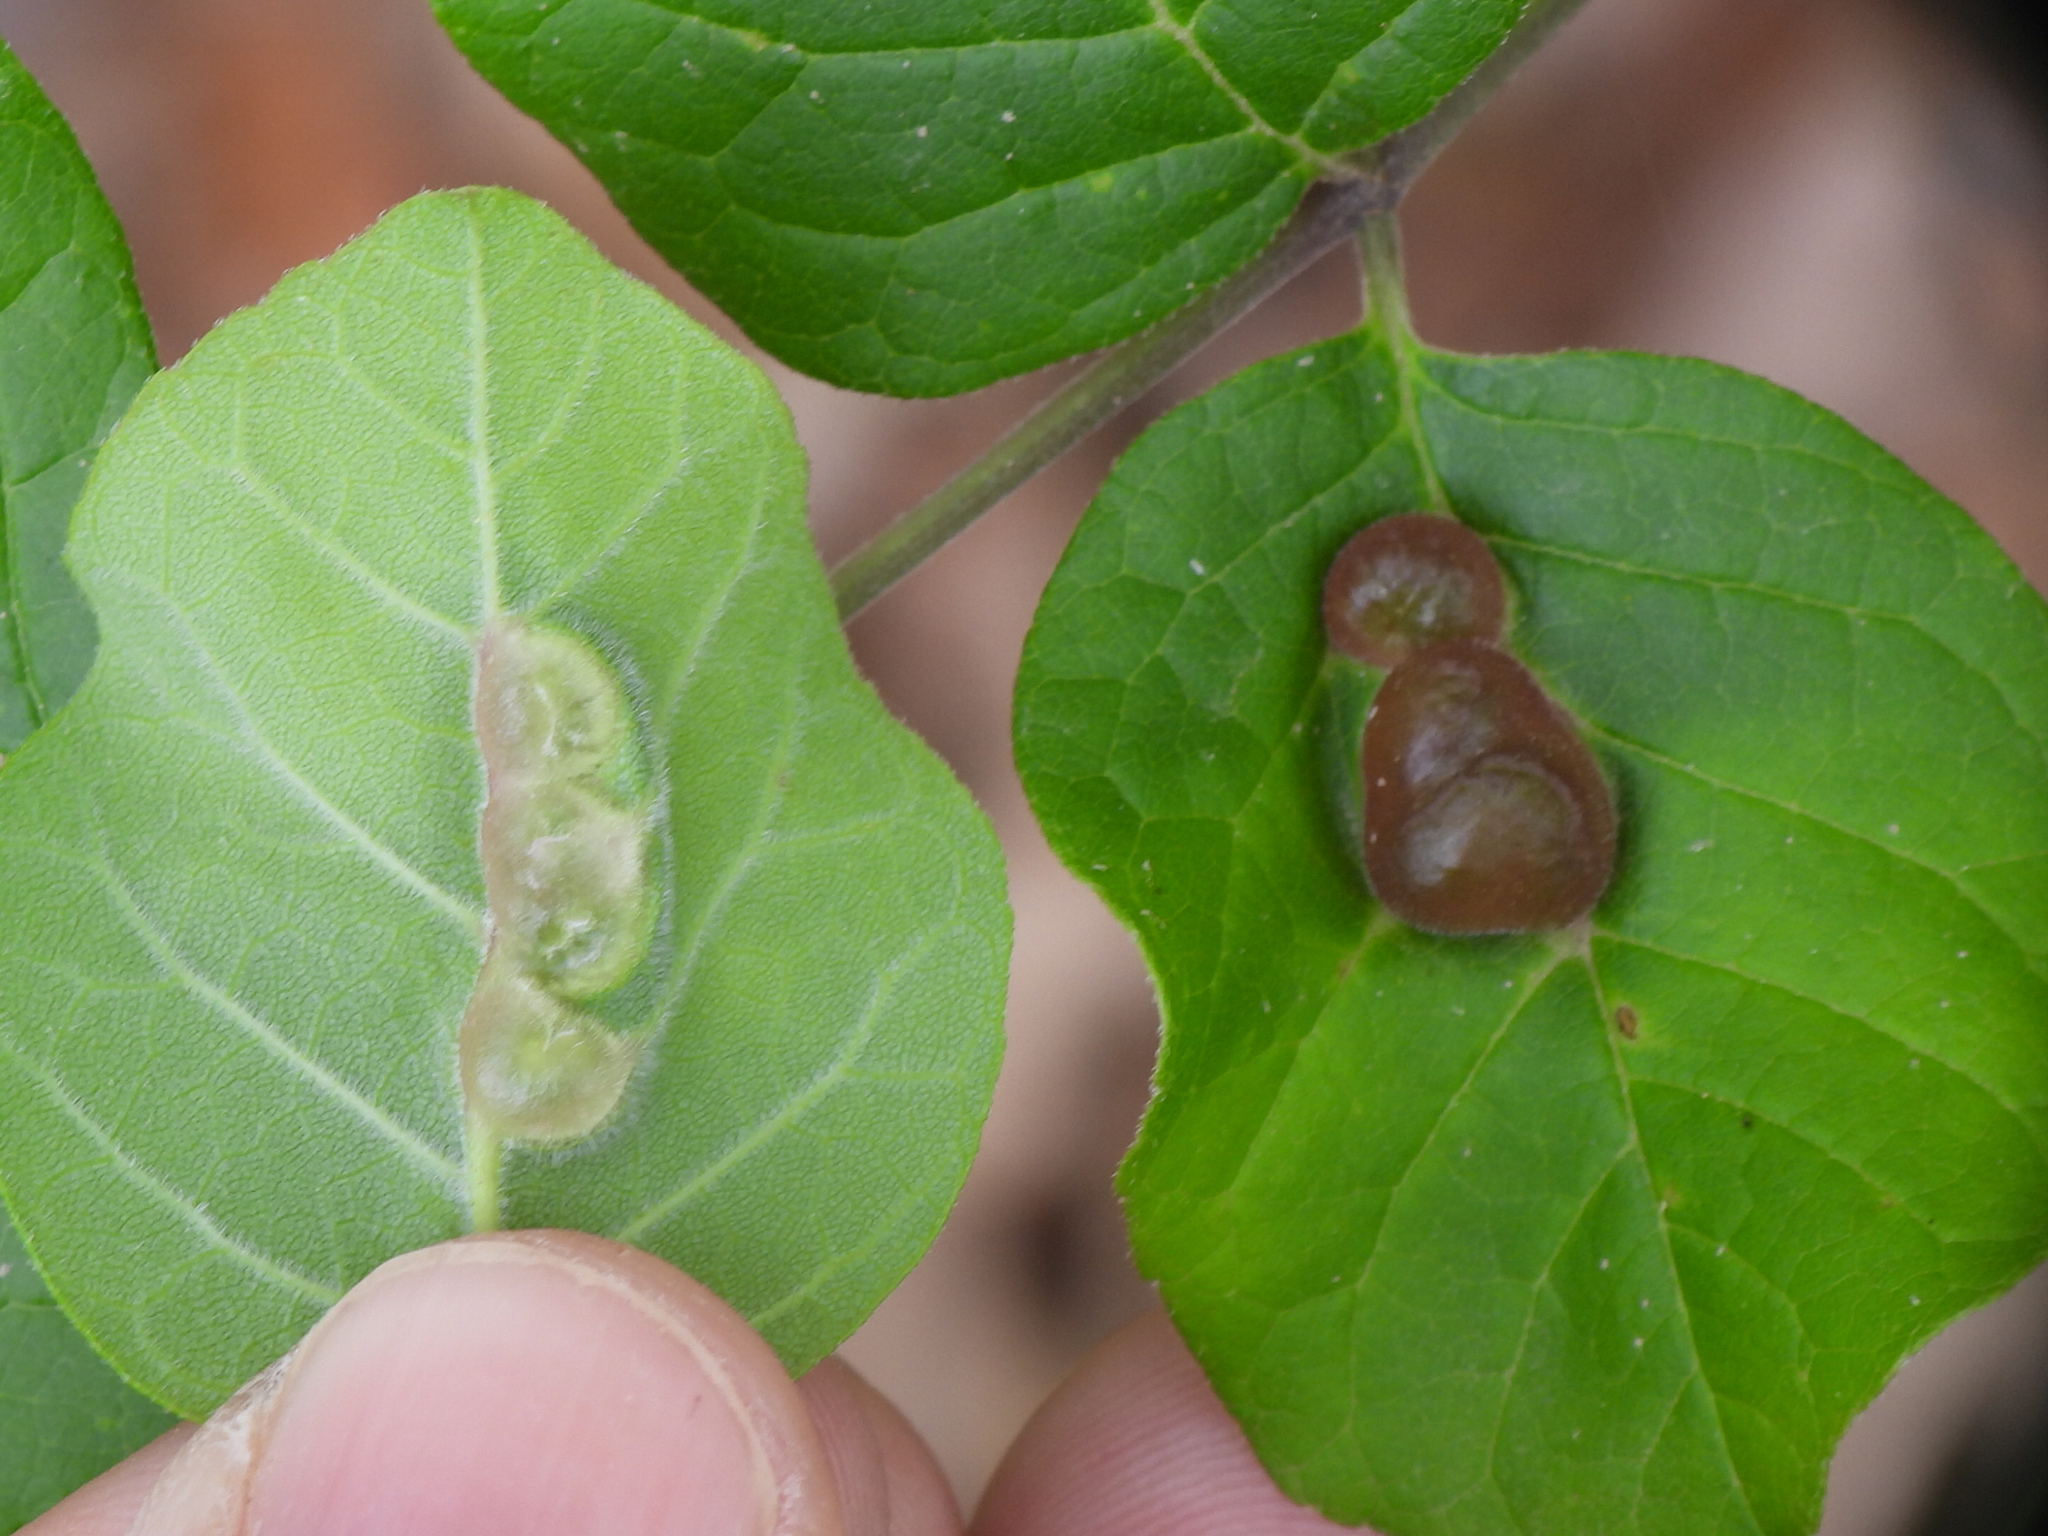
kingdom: Animalia
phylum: Arthropoda
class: Insecta
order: Diptera
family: Cecidomyiidae
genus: Dasineura
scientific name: Dasineura pellex
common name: Ash bullet gall midge
